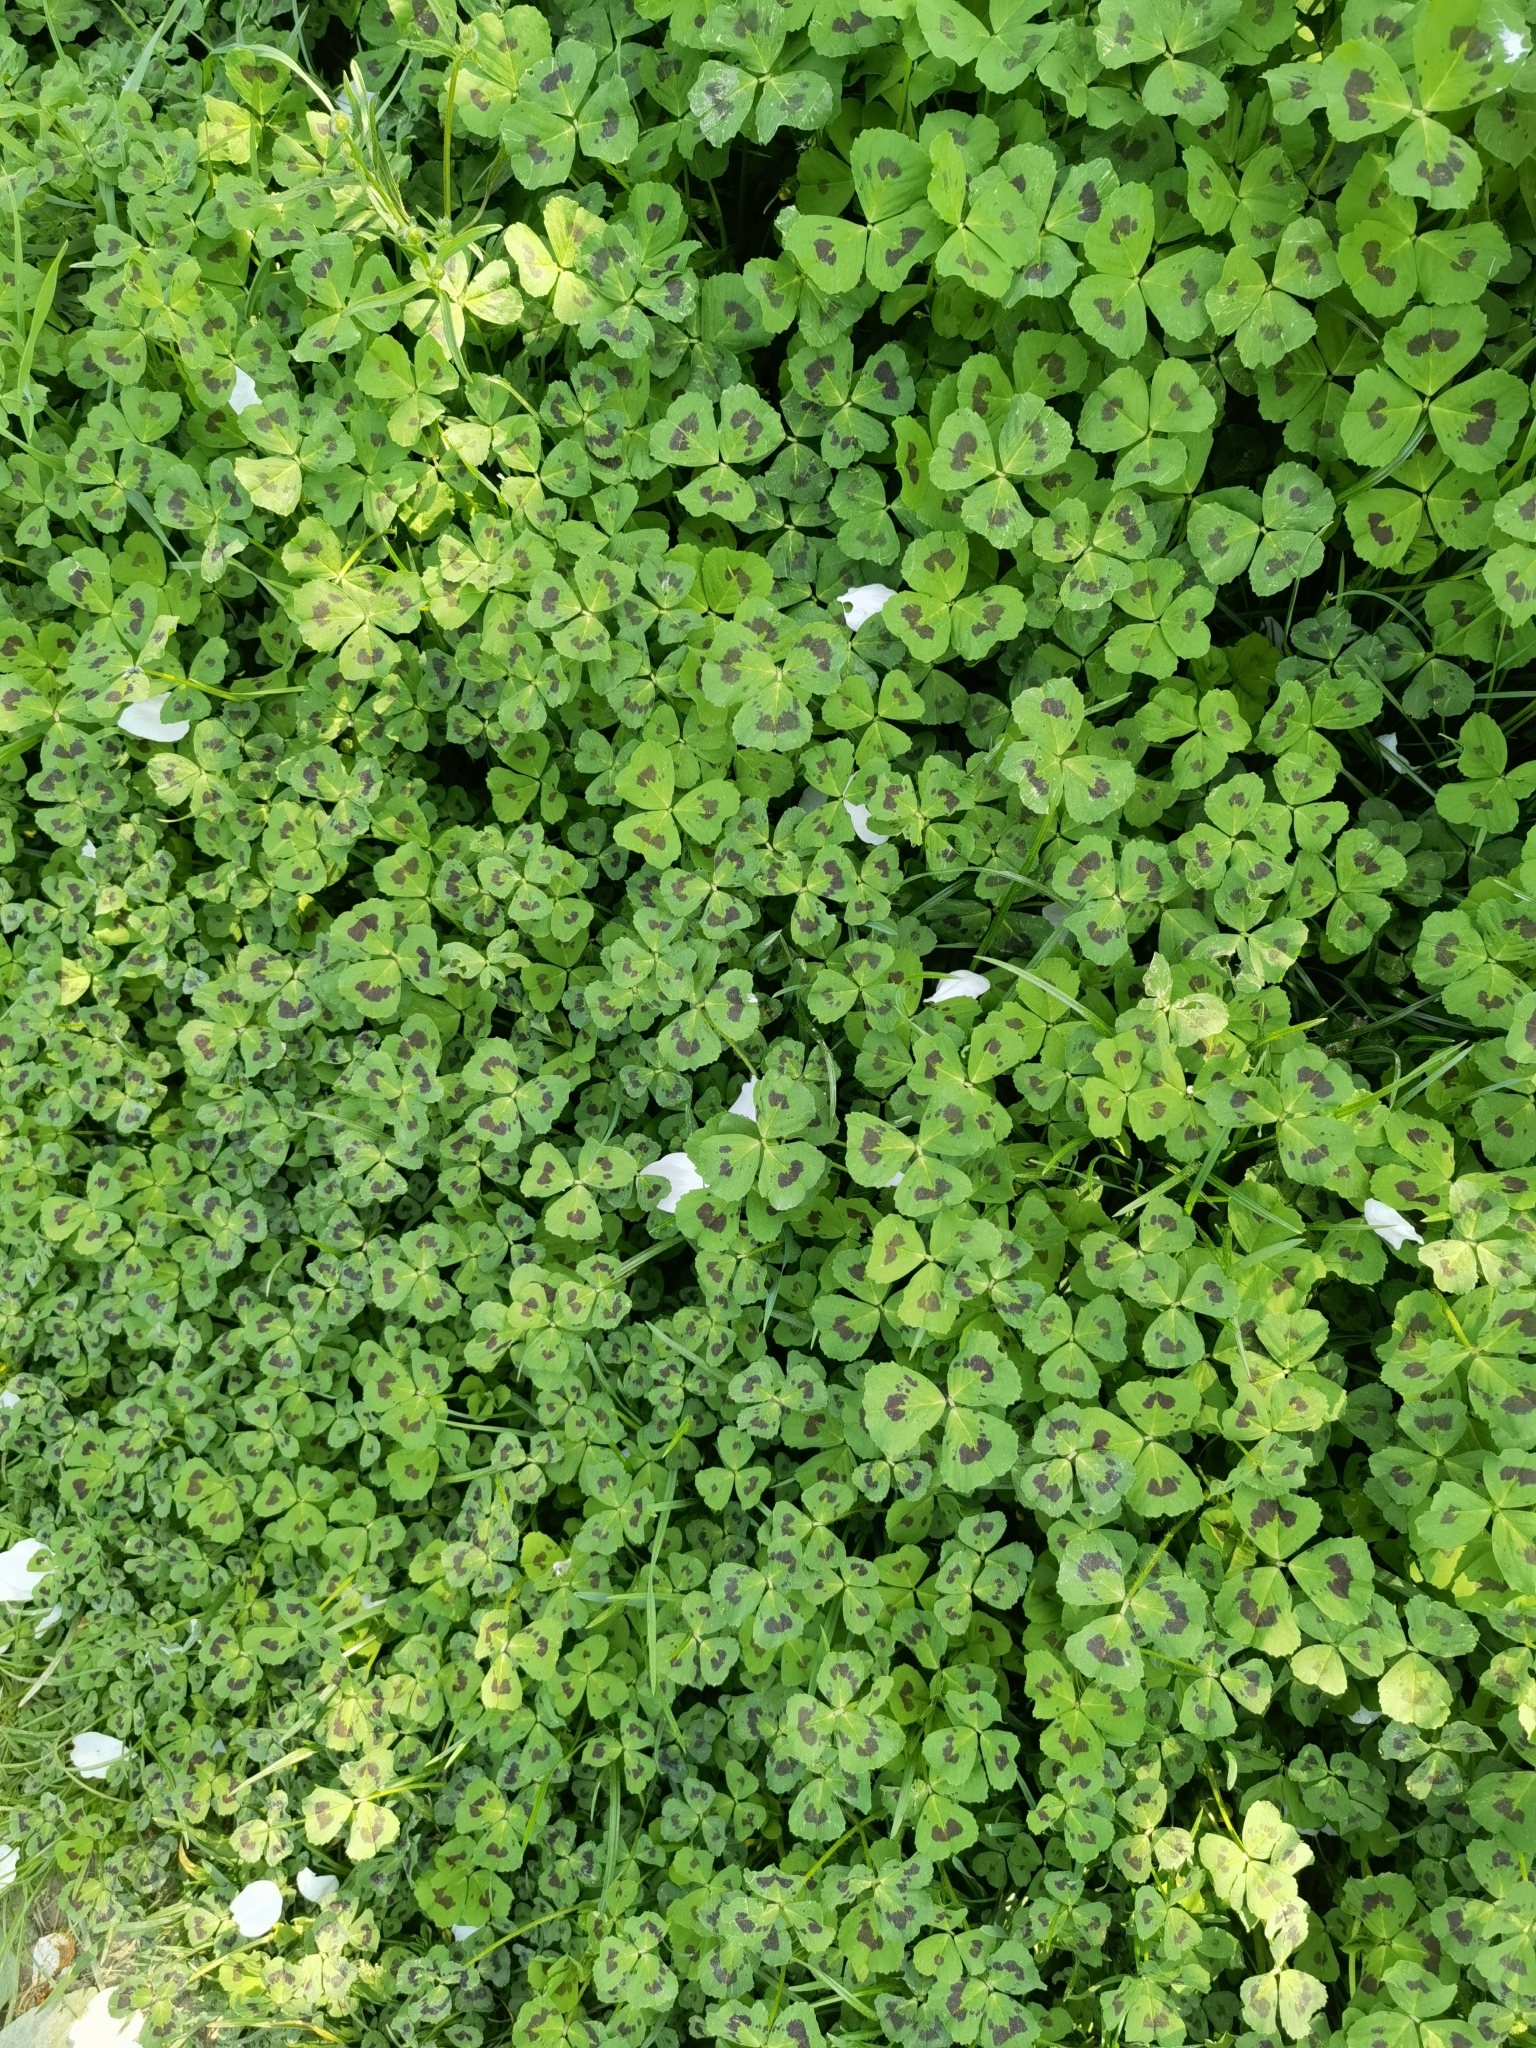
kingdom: Plantae
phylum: Tracheophyta
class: Magnoliopsida
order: Fabales
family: Fabaceae
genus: Medicago
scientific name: Medicago arabica
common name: Spotted medick
